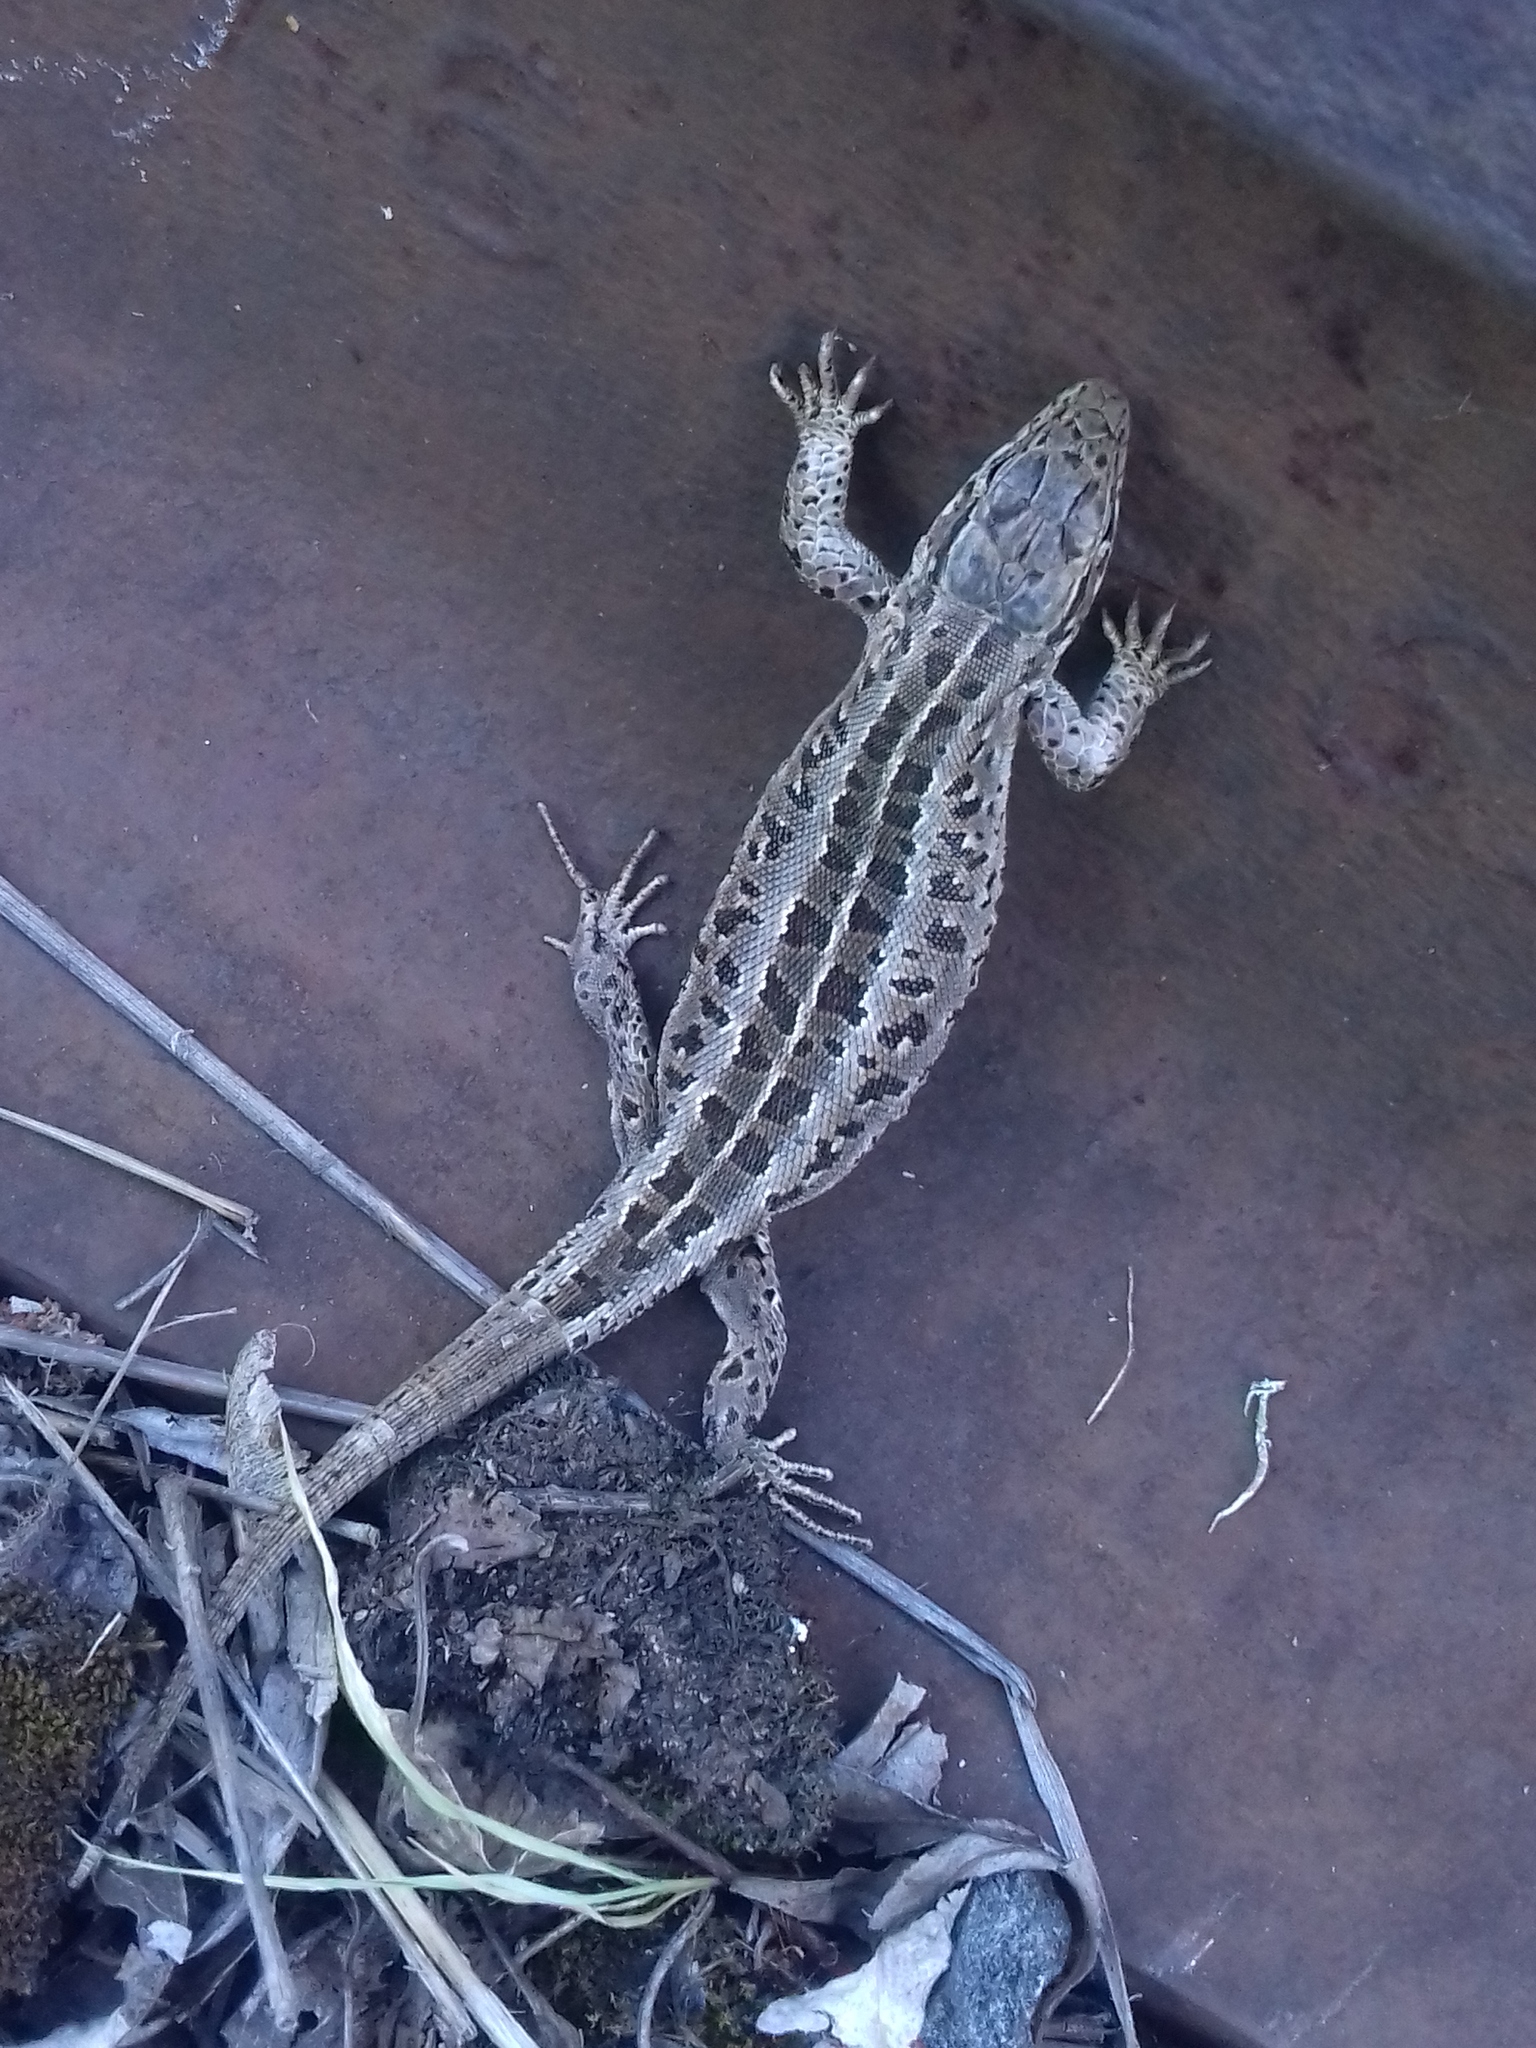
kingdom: Animalia
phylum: Chordata
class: Squamata
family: Lacertidae
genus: Lacerta
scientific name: Lacerta agilis
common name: Sand lizard
